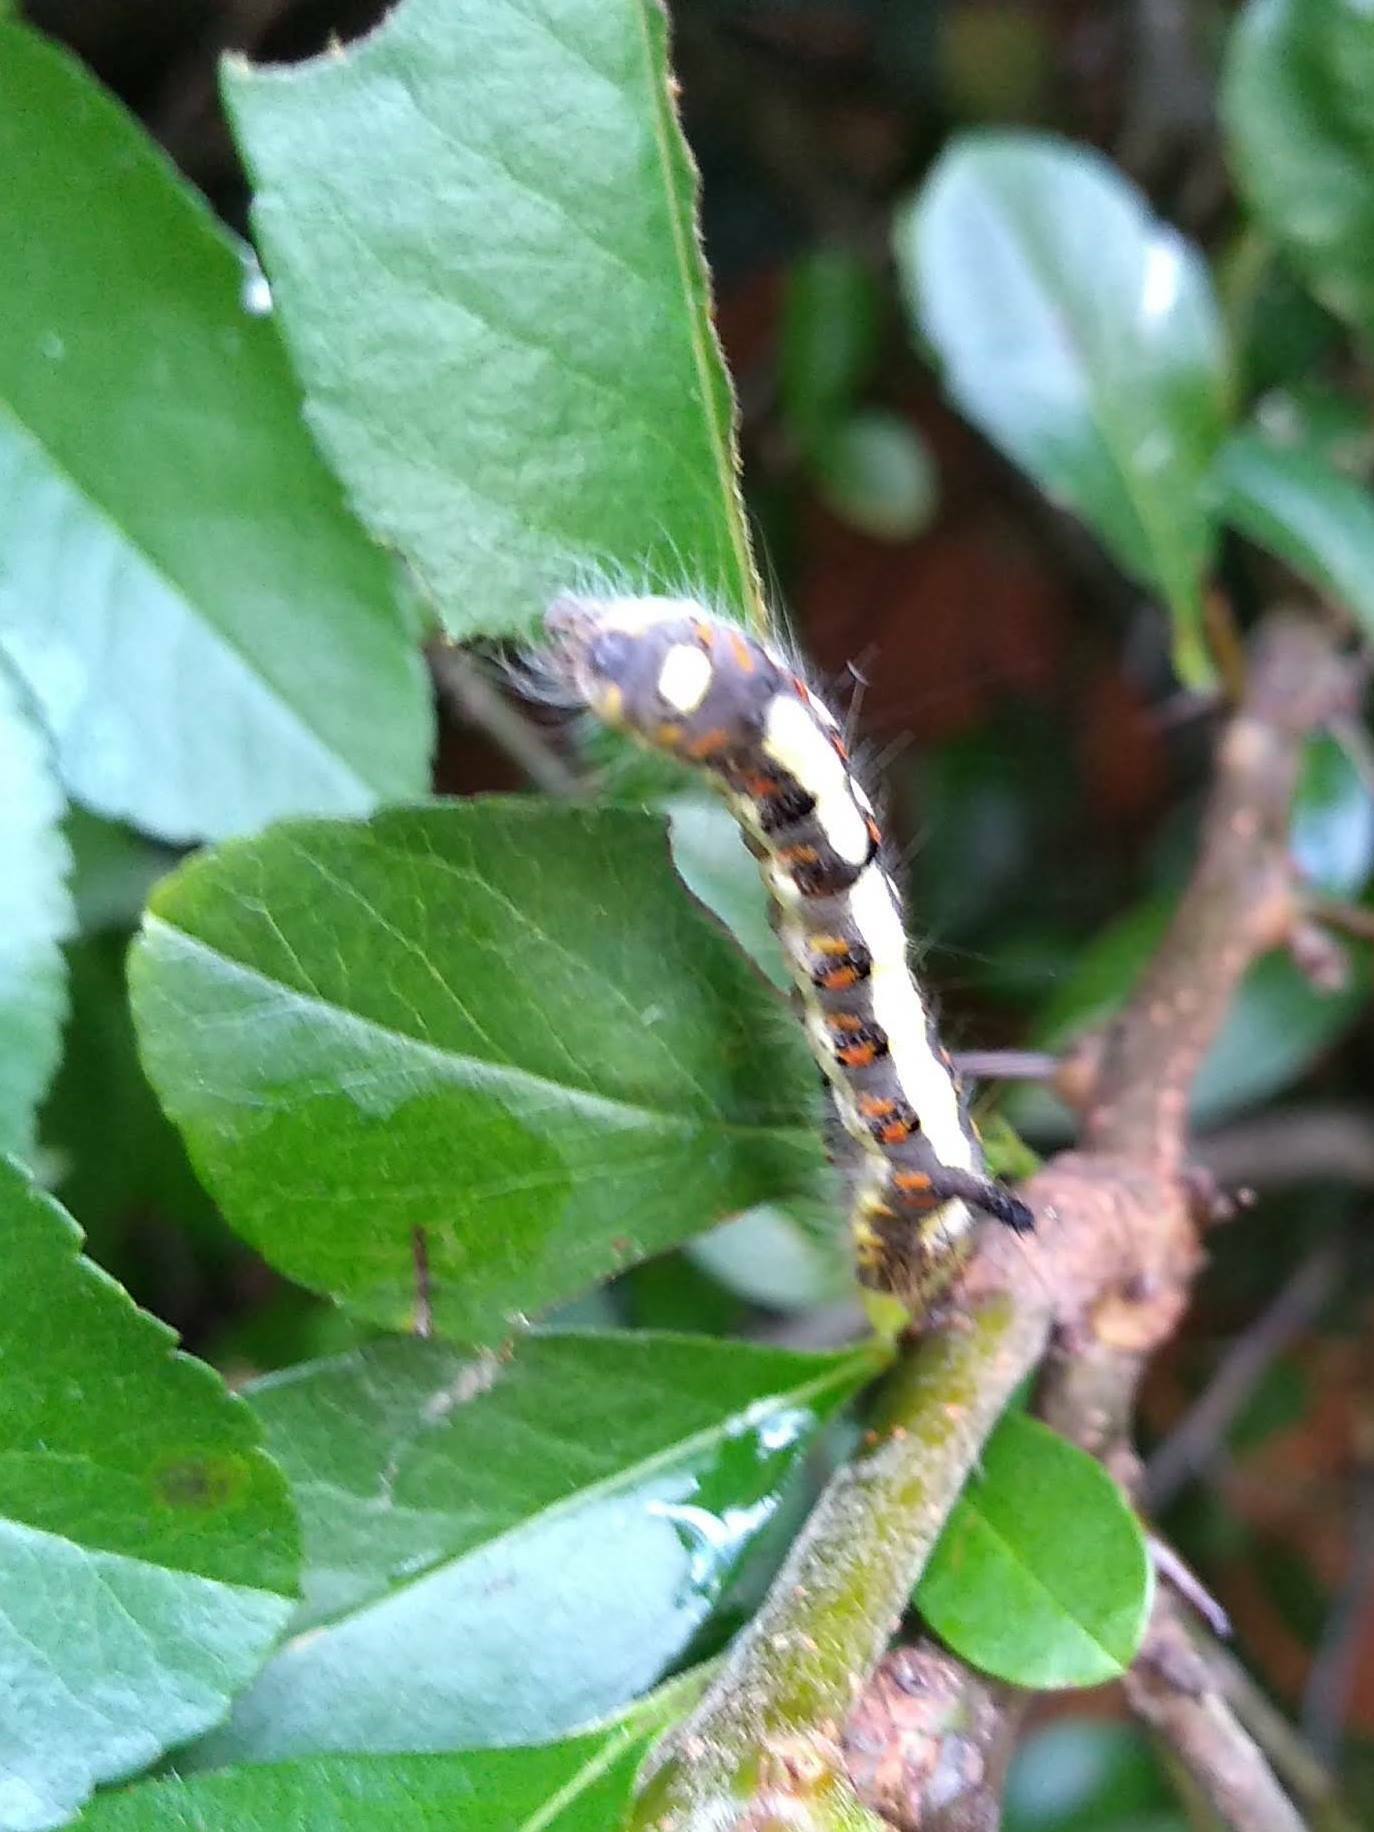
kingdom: Animalia
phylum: Arthropoda
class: Insecta
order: Lepidoptera
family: Noctuidae
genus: Acronicta
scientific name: Acronicta psi
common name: Grey dagger
